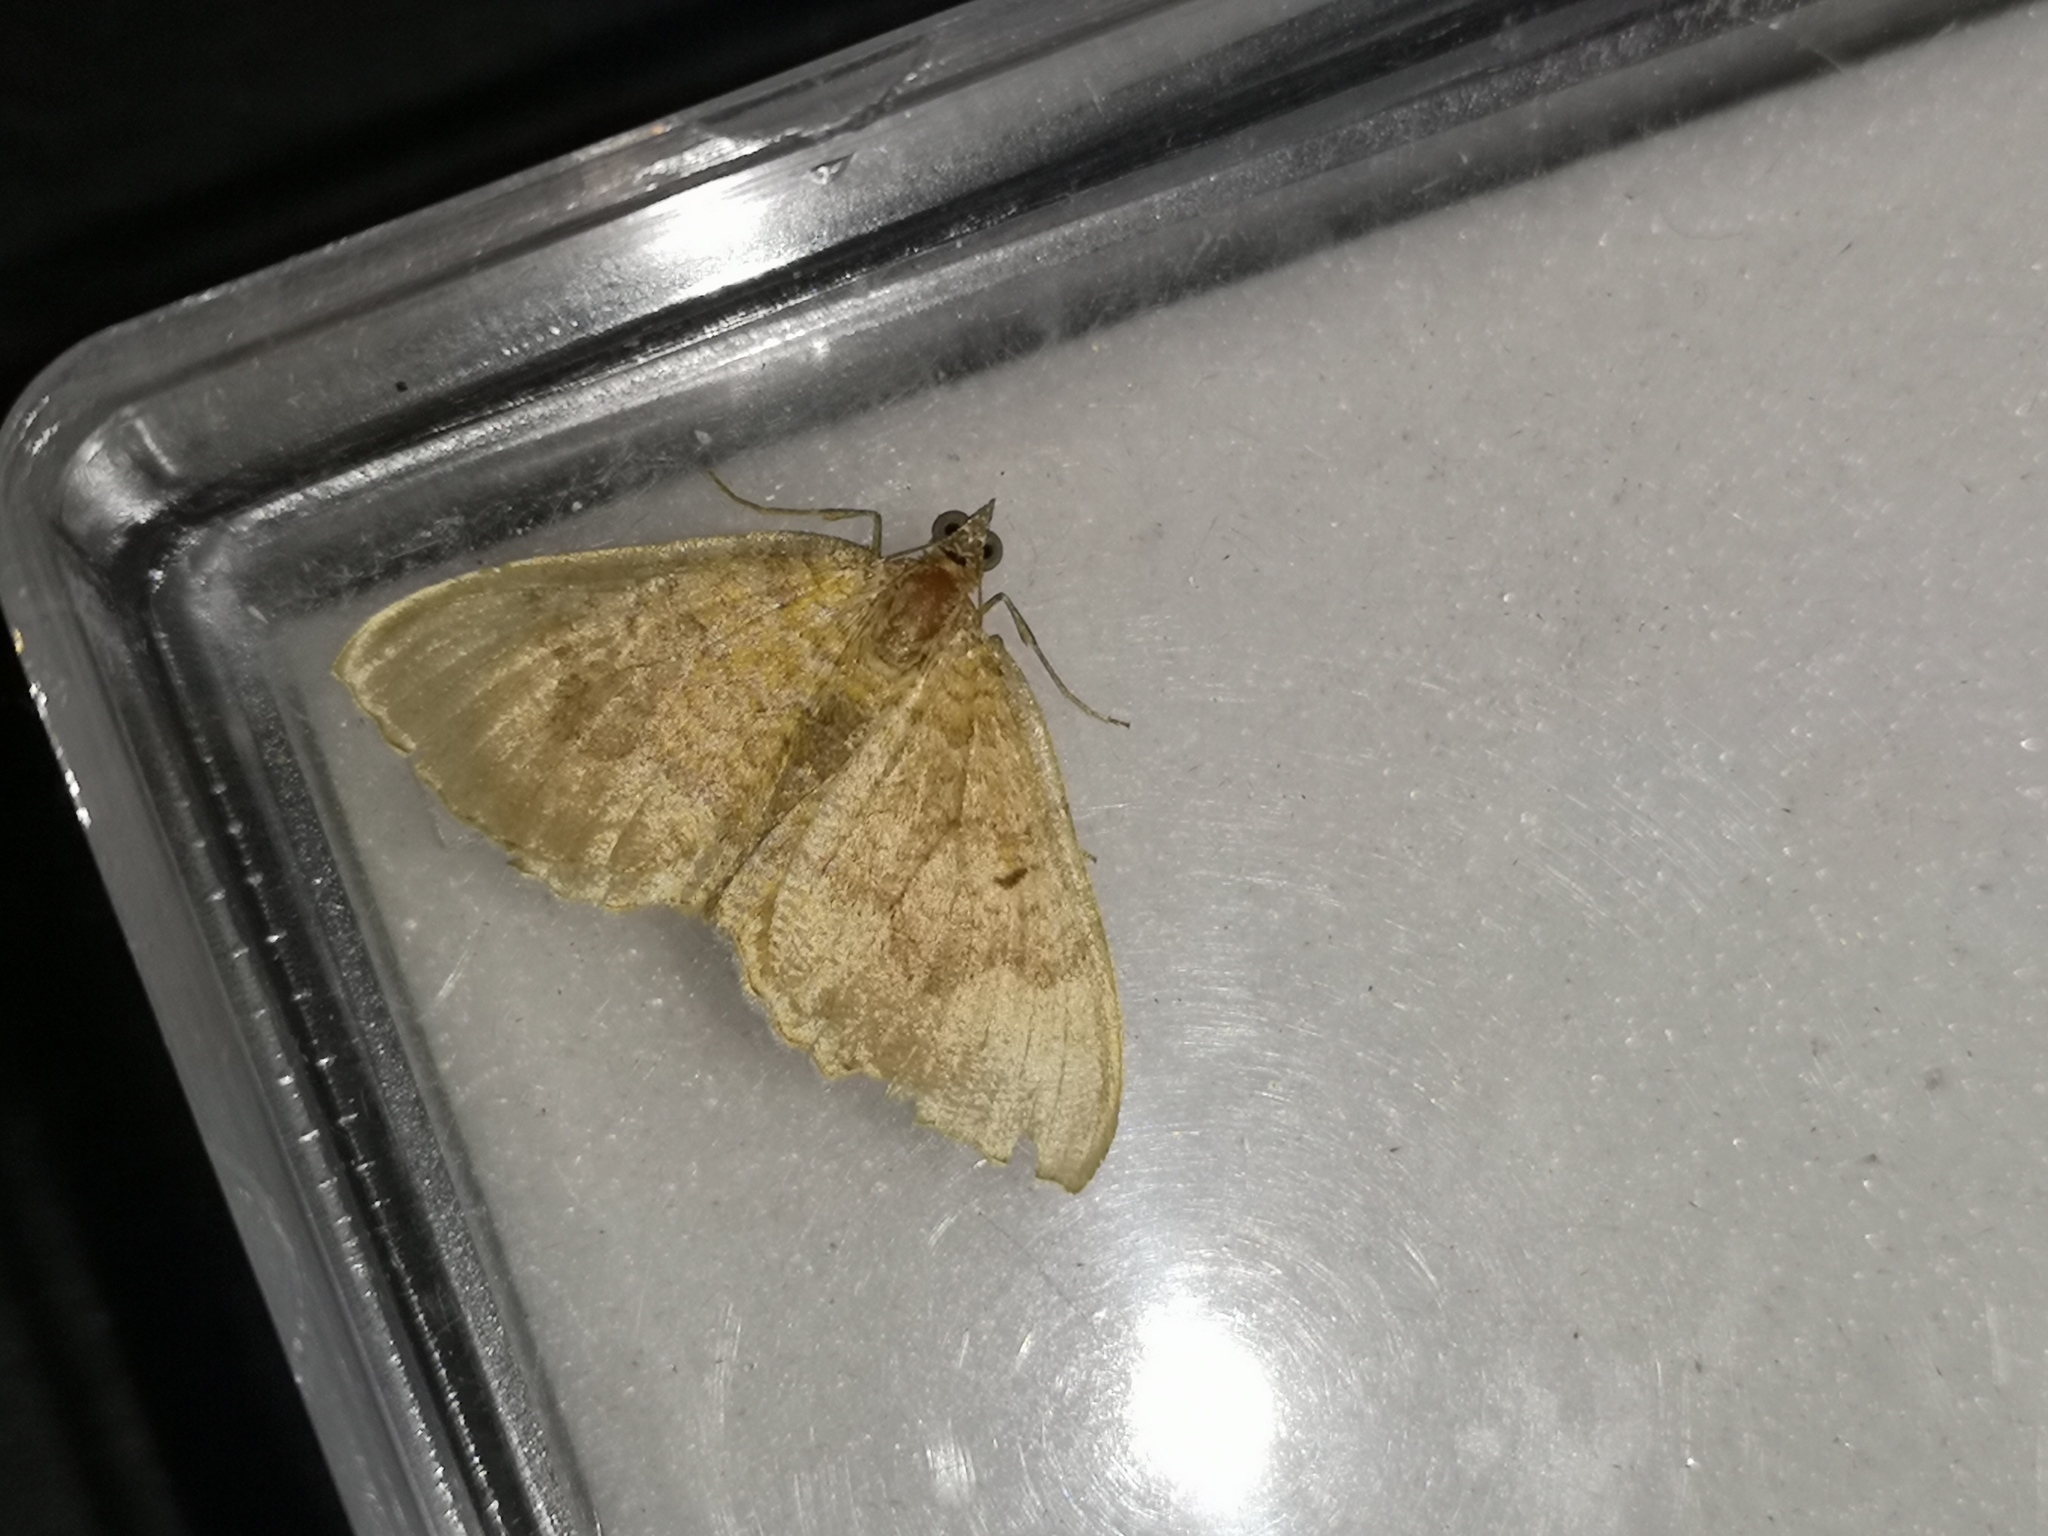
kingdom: Animalia
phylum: Arthropoda
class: Insecta
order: Lepidoptera
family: Geometridae
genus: Camptogramma
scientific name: Camptogramma bilineata
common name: Yellow shell
